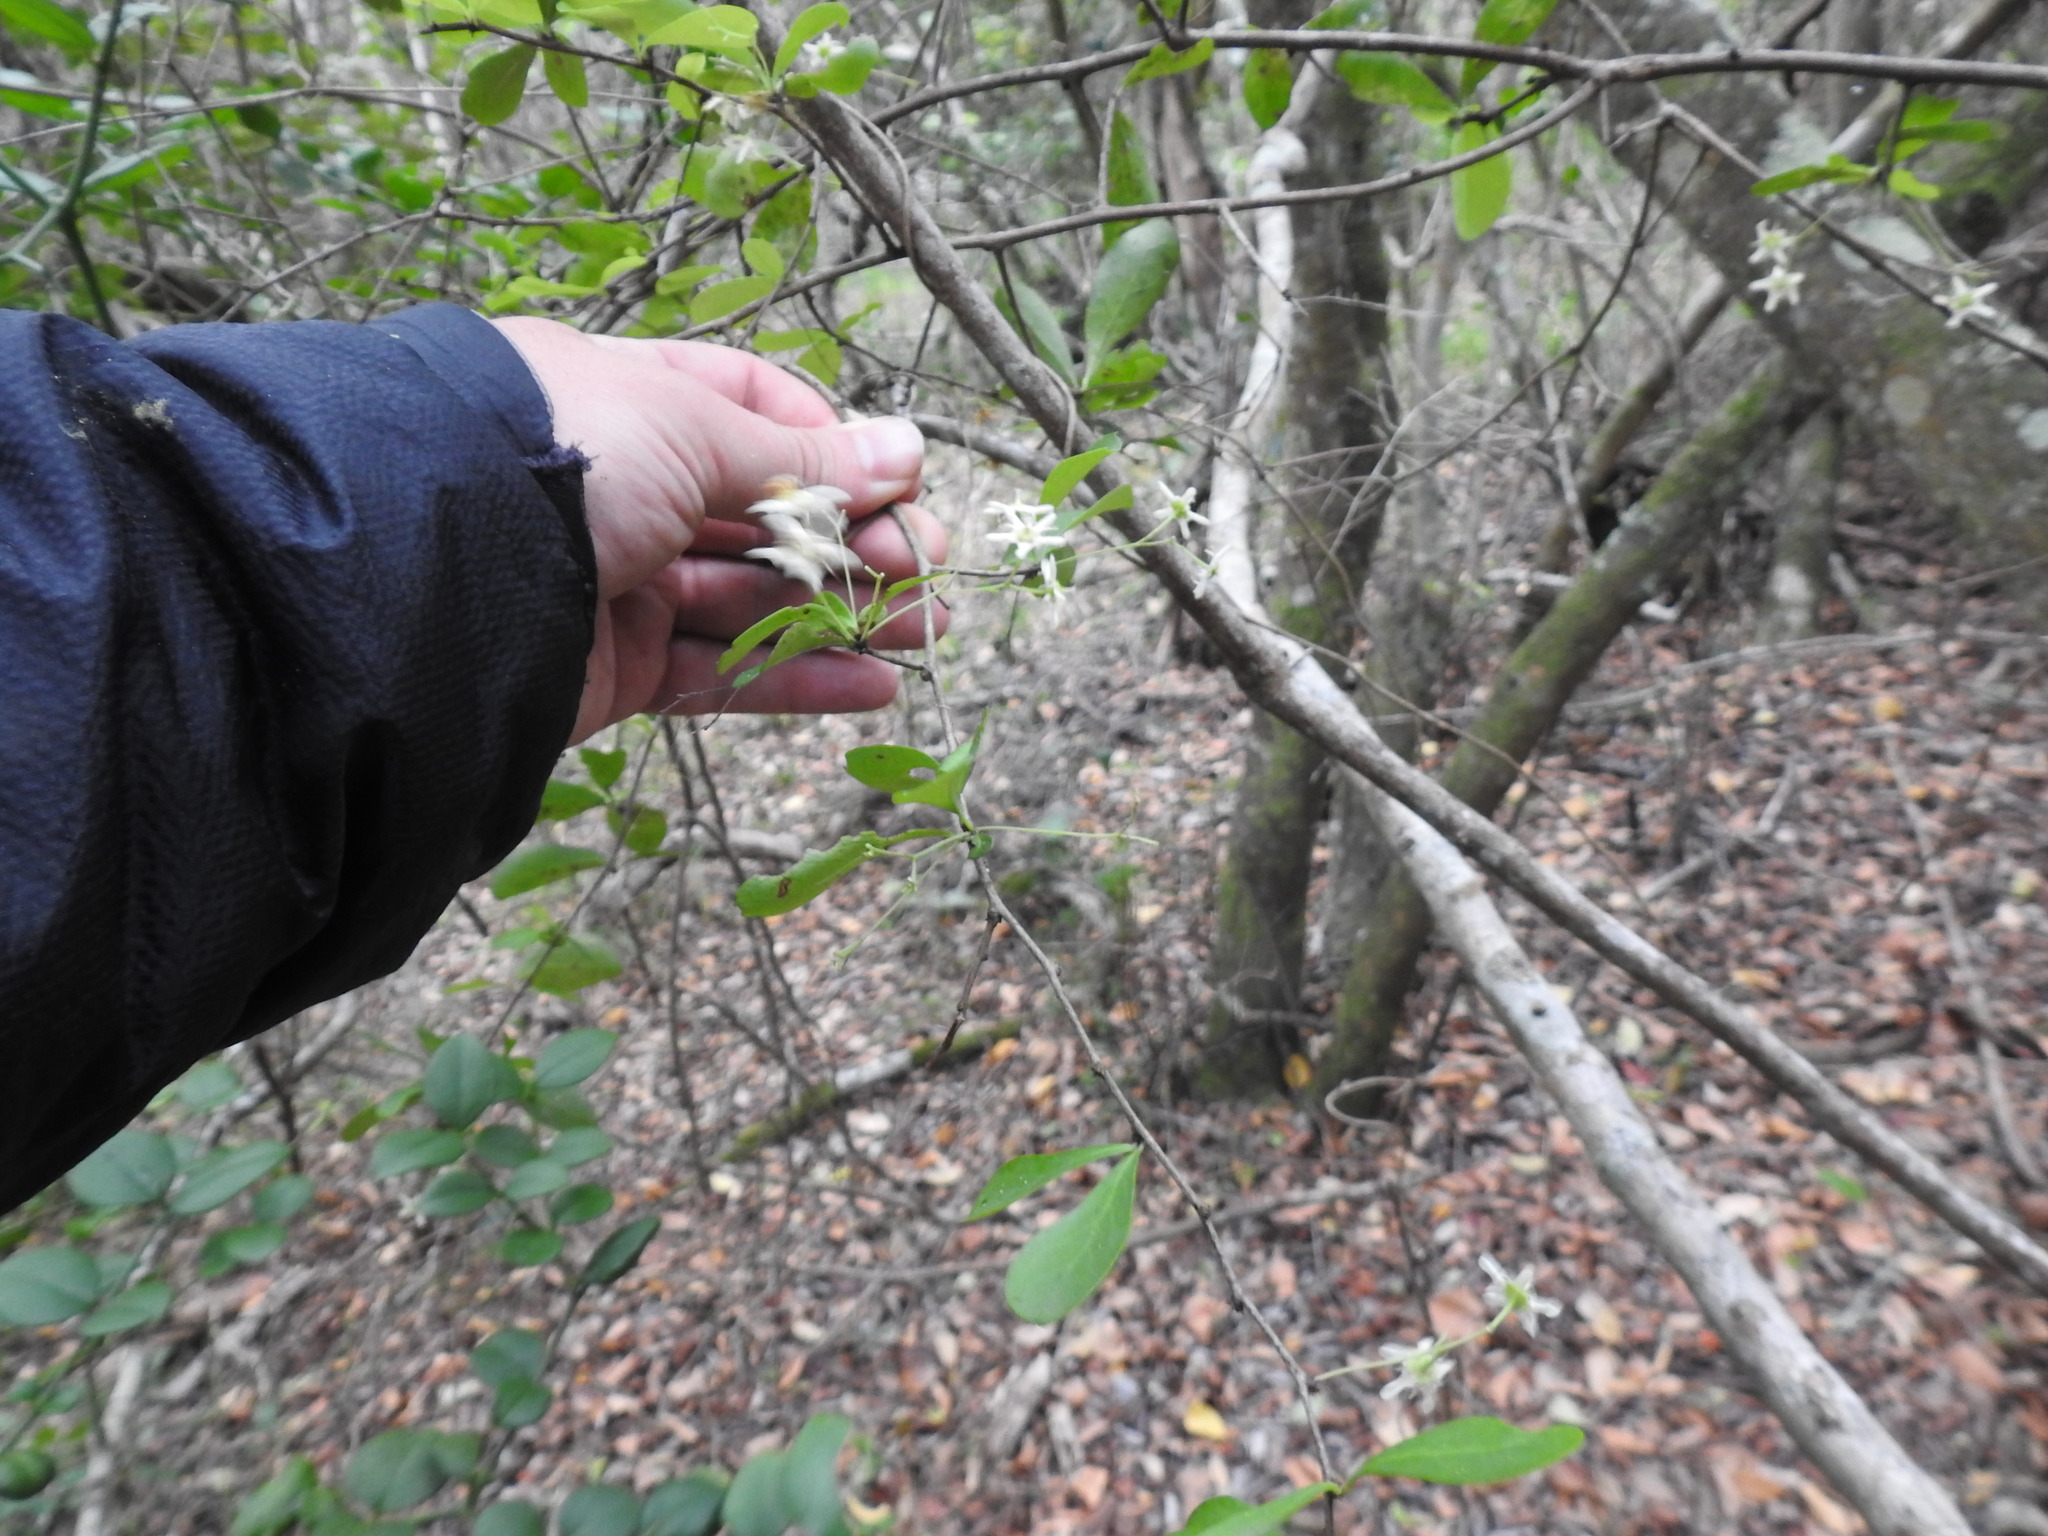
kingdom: Plantae
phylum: Tracheophyta
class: Magnoliopsida
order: Celastrales
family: Celastraceae
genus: Gymnosporia
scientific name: Gymnosporia nemorosa
